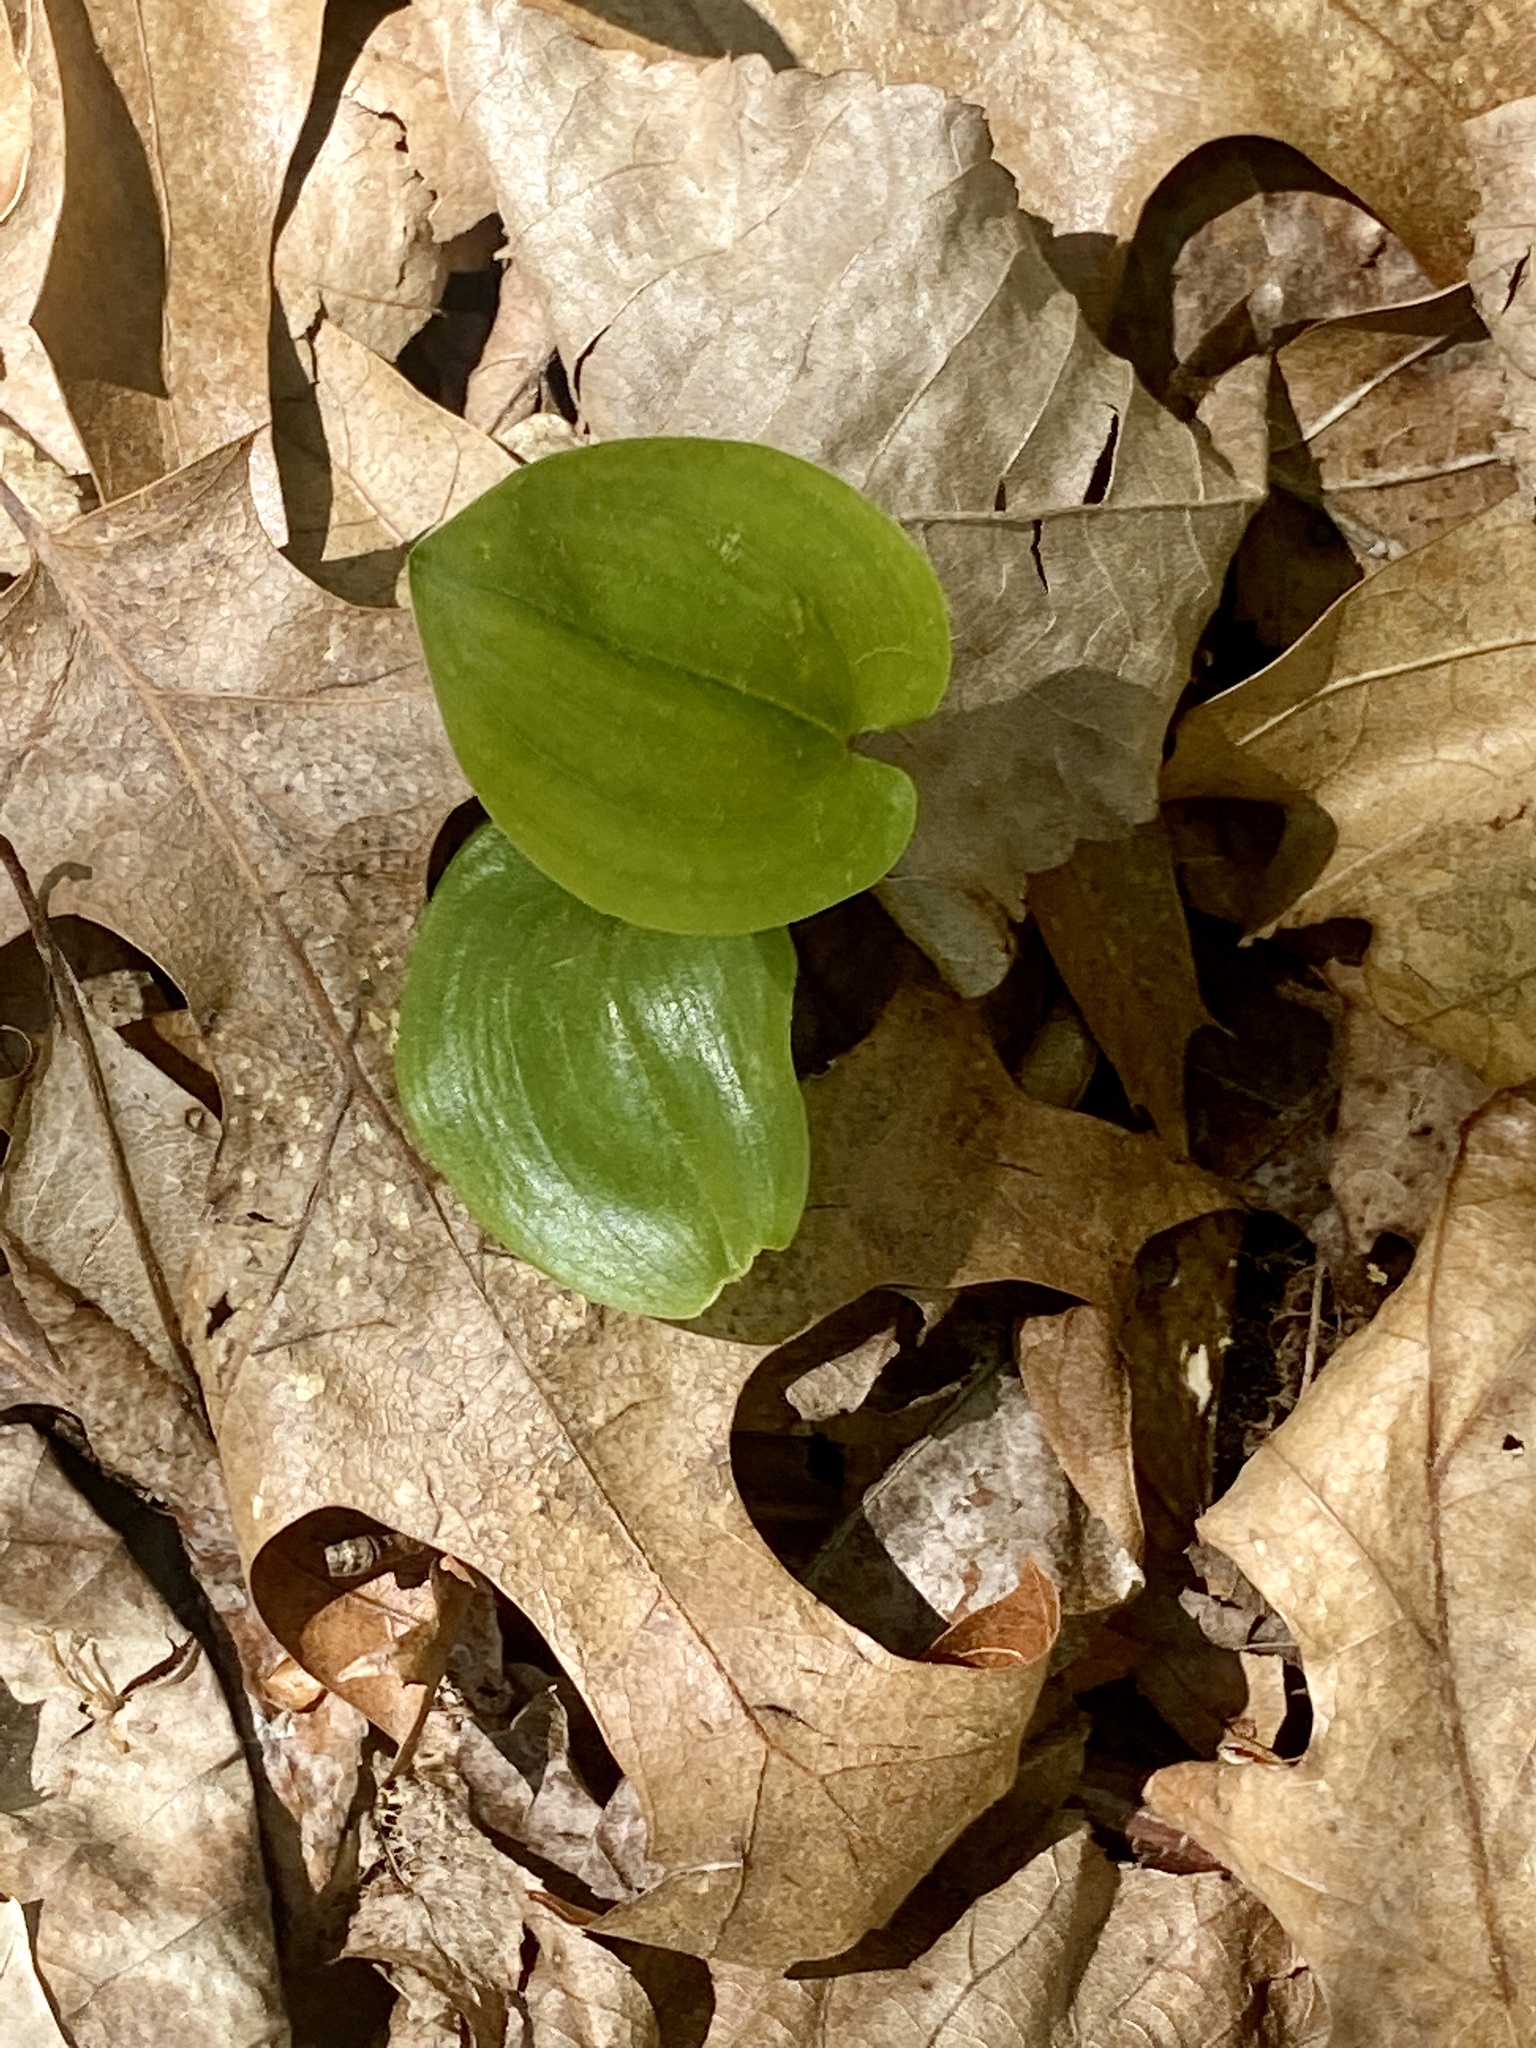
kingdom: Plantae
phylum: Tracheophyta
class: Liliopsida
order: Asparagales
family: Asparagaceae
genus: Maianthemum
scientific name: Maianthemum canadense
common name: False lily-of-the-valley
